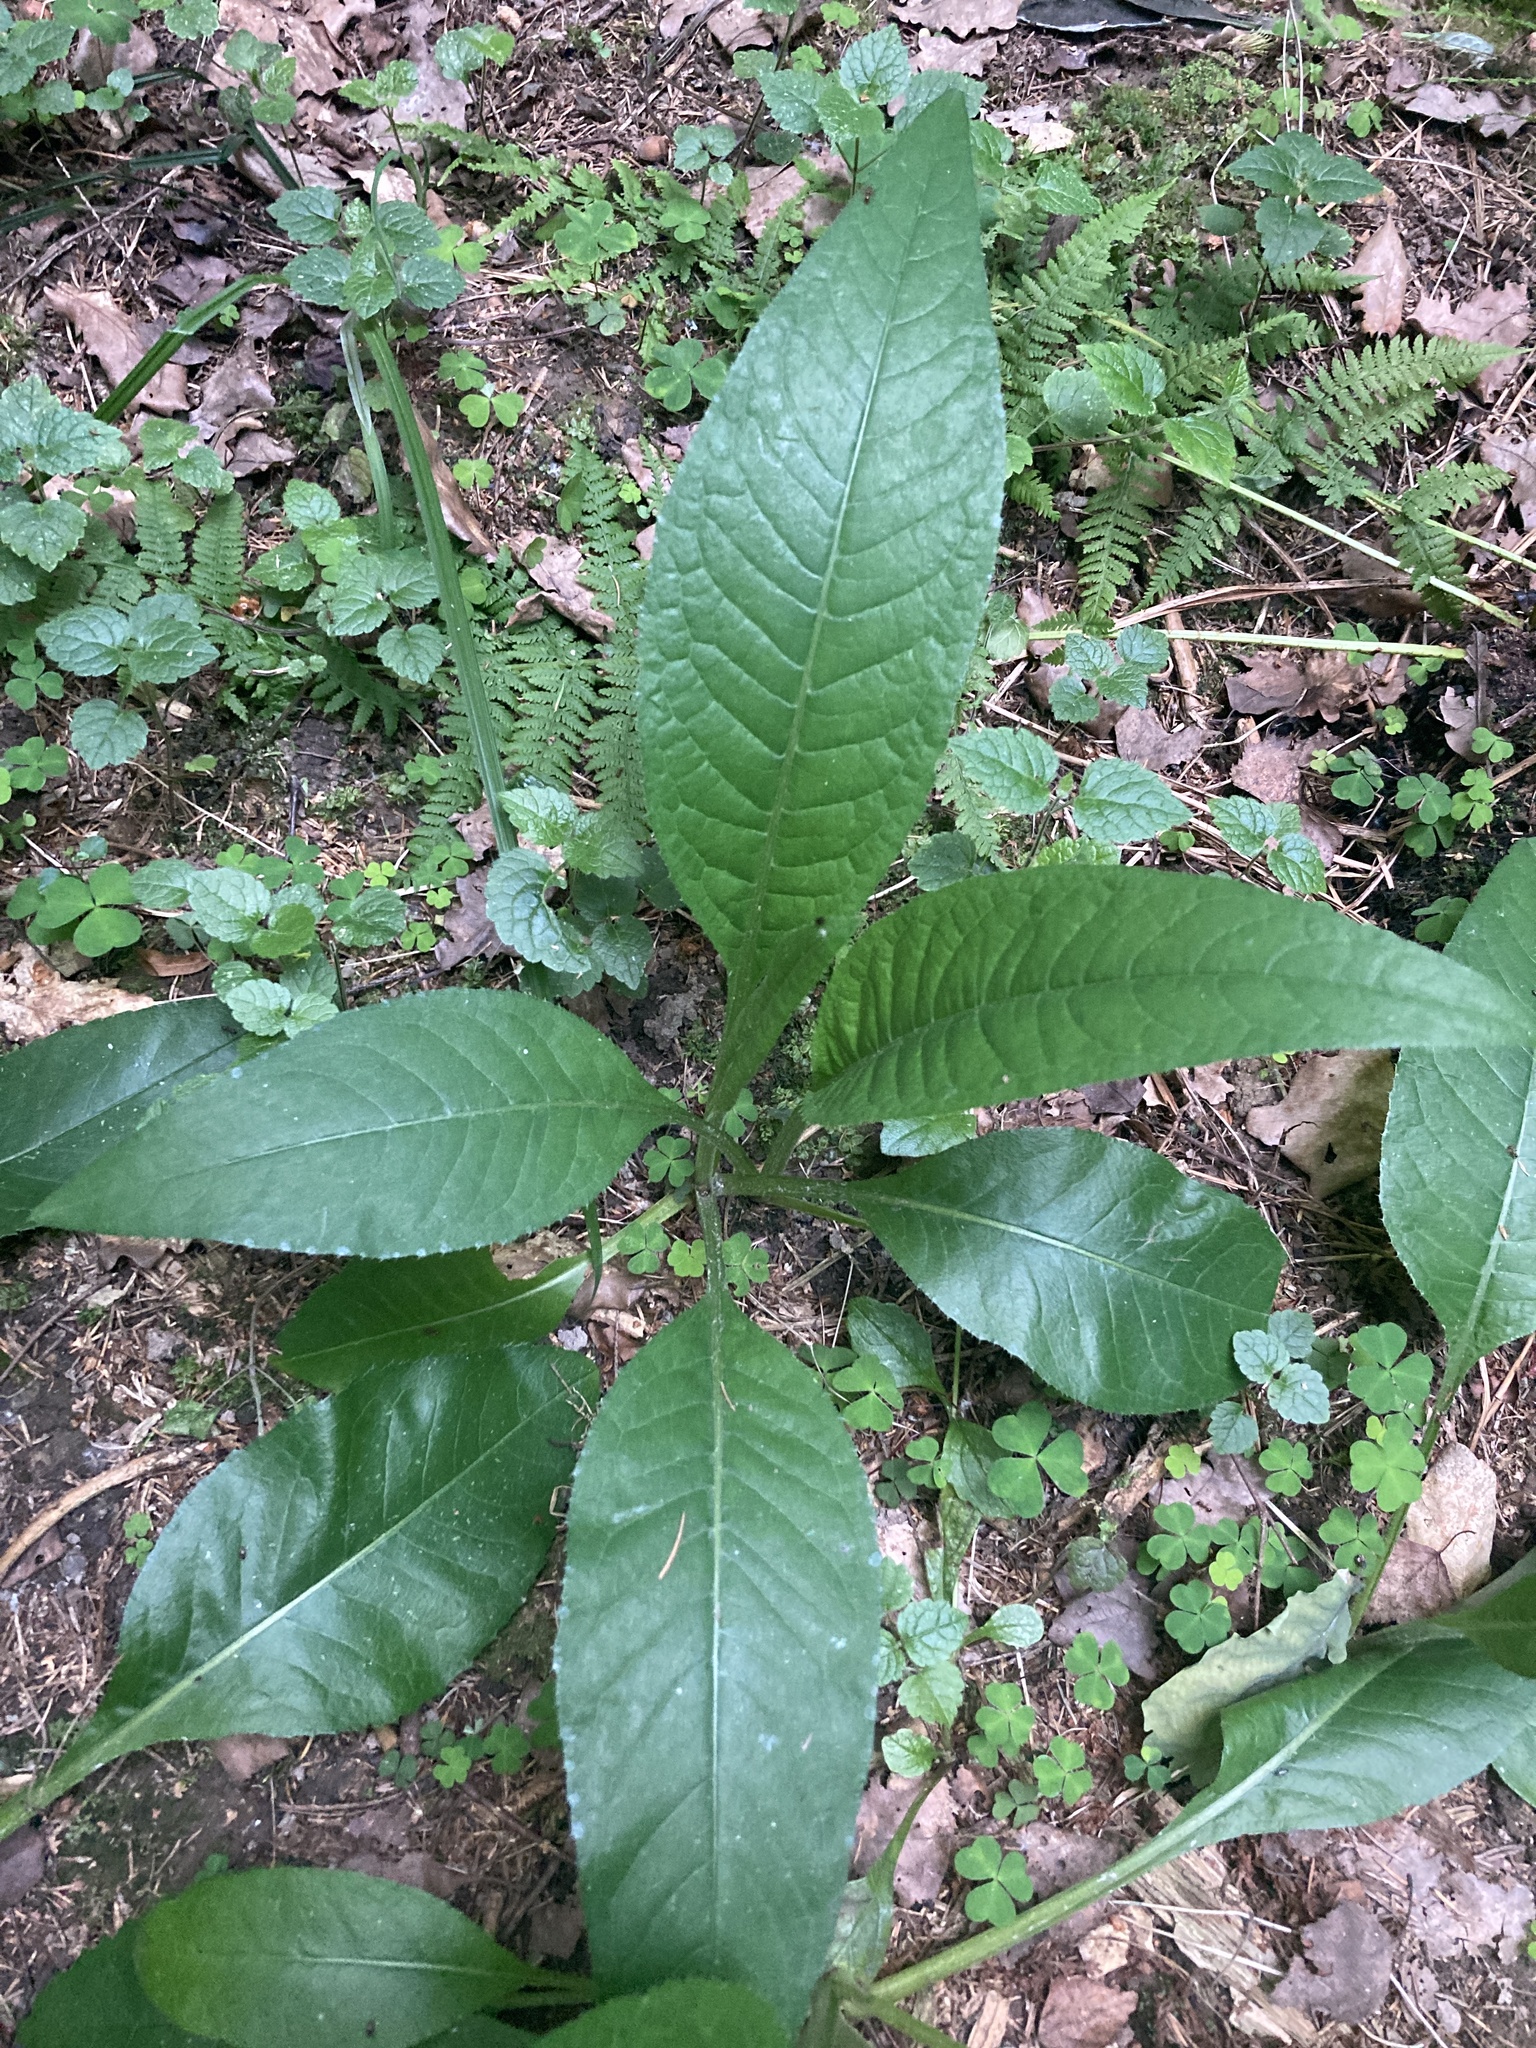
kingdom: Plantae
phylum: Tracheophyta
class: Magnoliopsida
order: Asterales
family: Asteraceae
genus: Cirsium
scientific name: Cirsium heterophyllum
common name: Melancholy thistle
